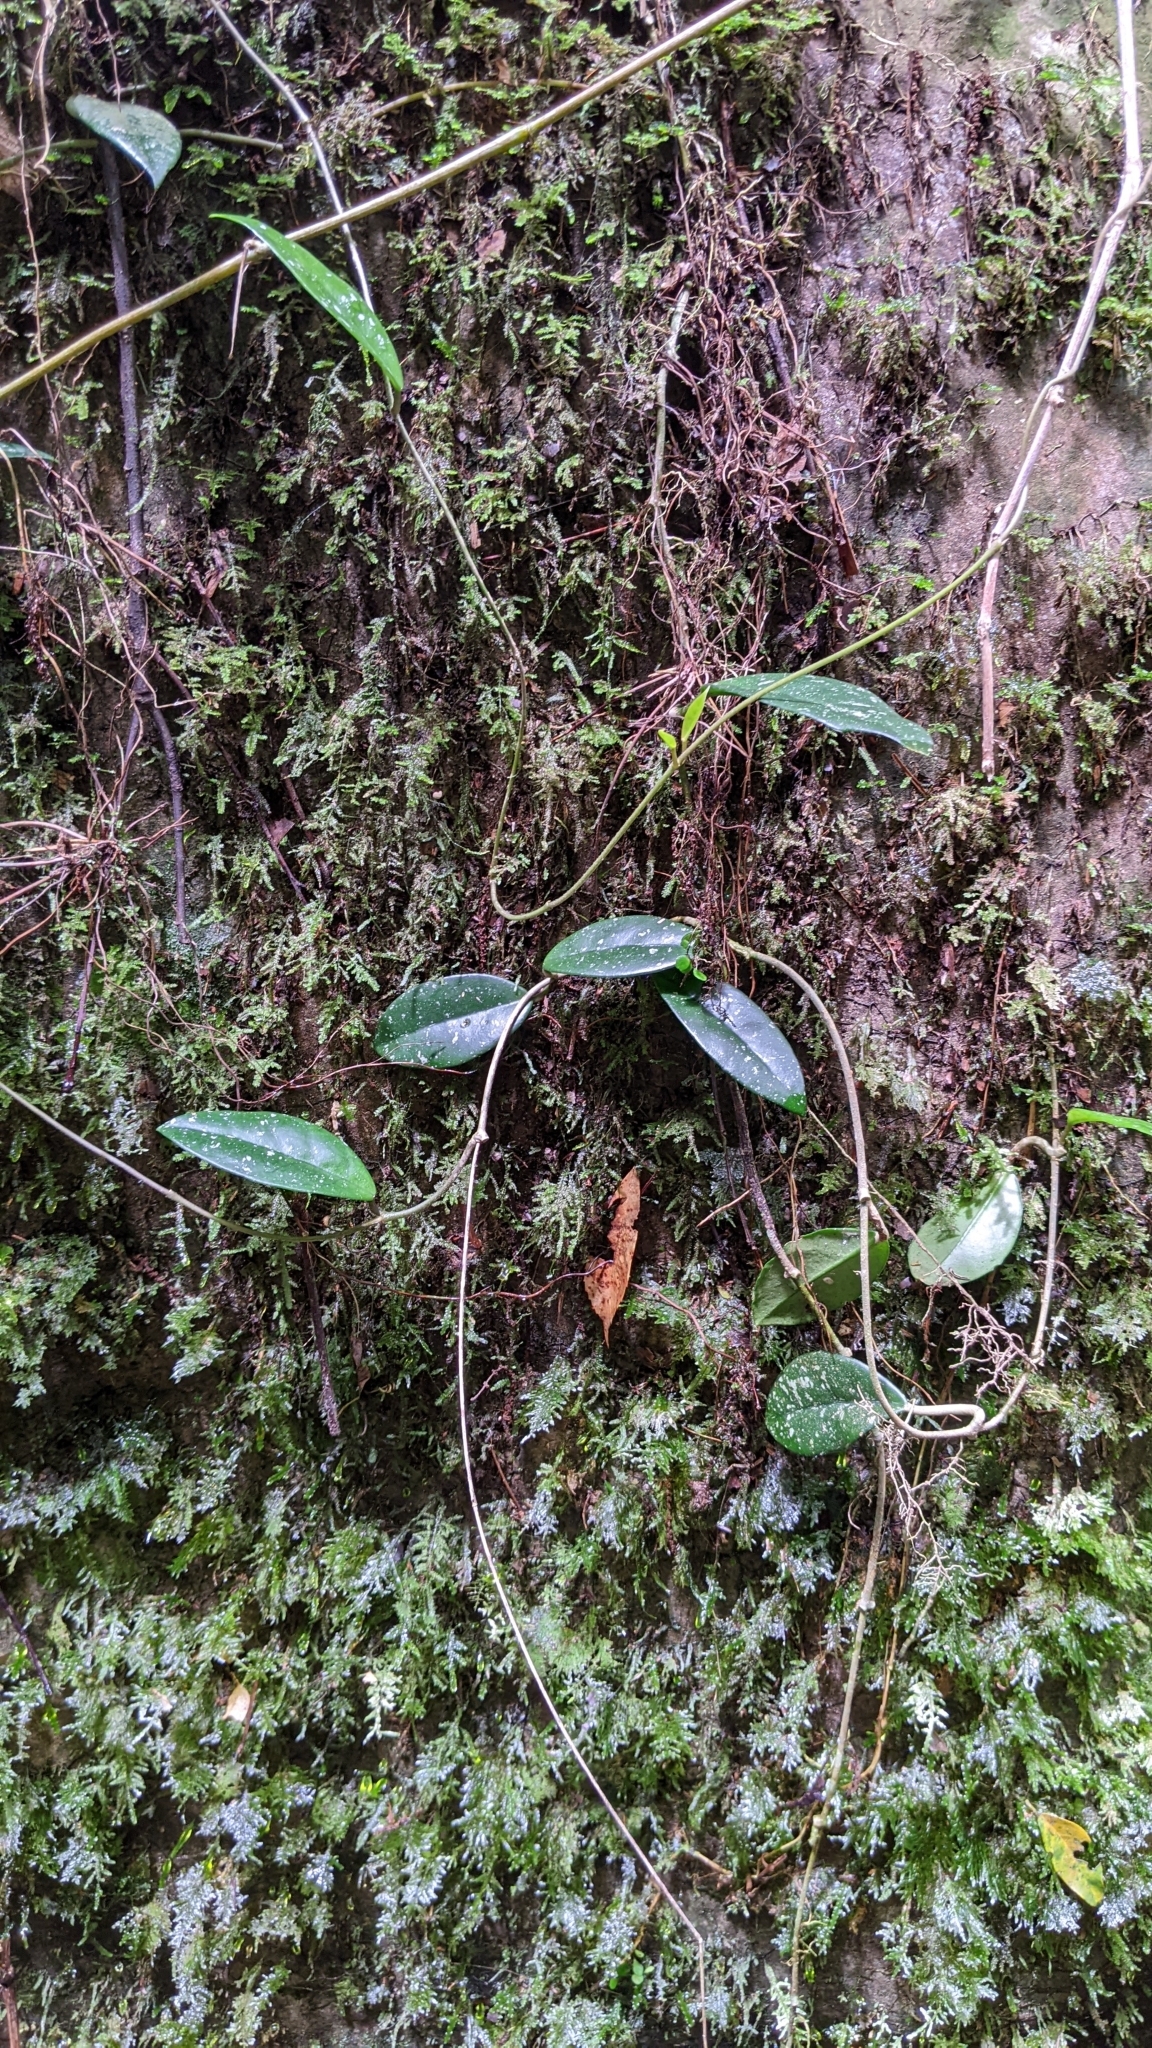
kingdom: Plantae
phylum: Tracheophyta
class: Magnoliopsida
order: Gentianales
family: Apocynaceae
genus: Hoya
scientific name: Hoya carnosa
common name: Honeyplant
